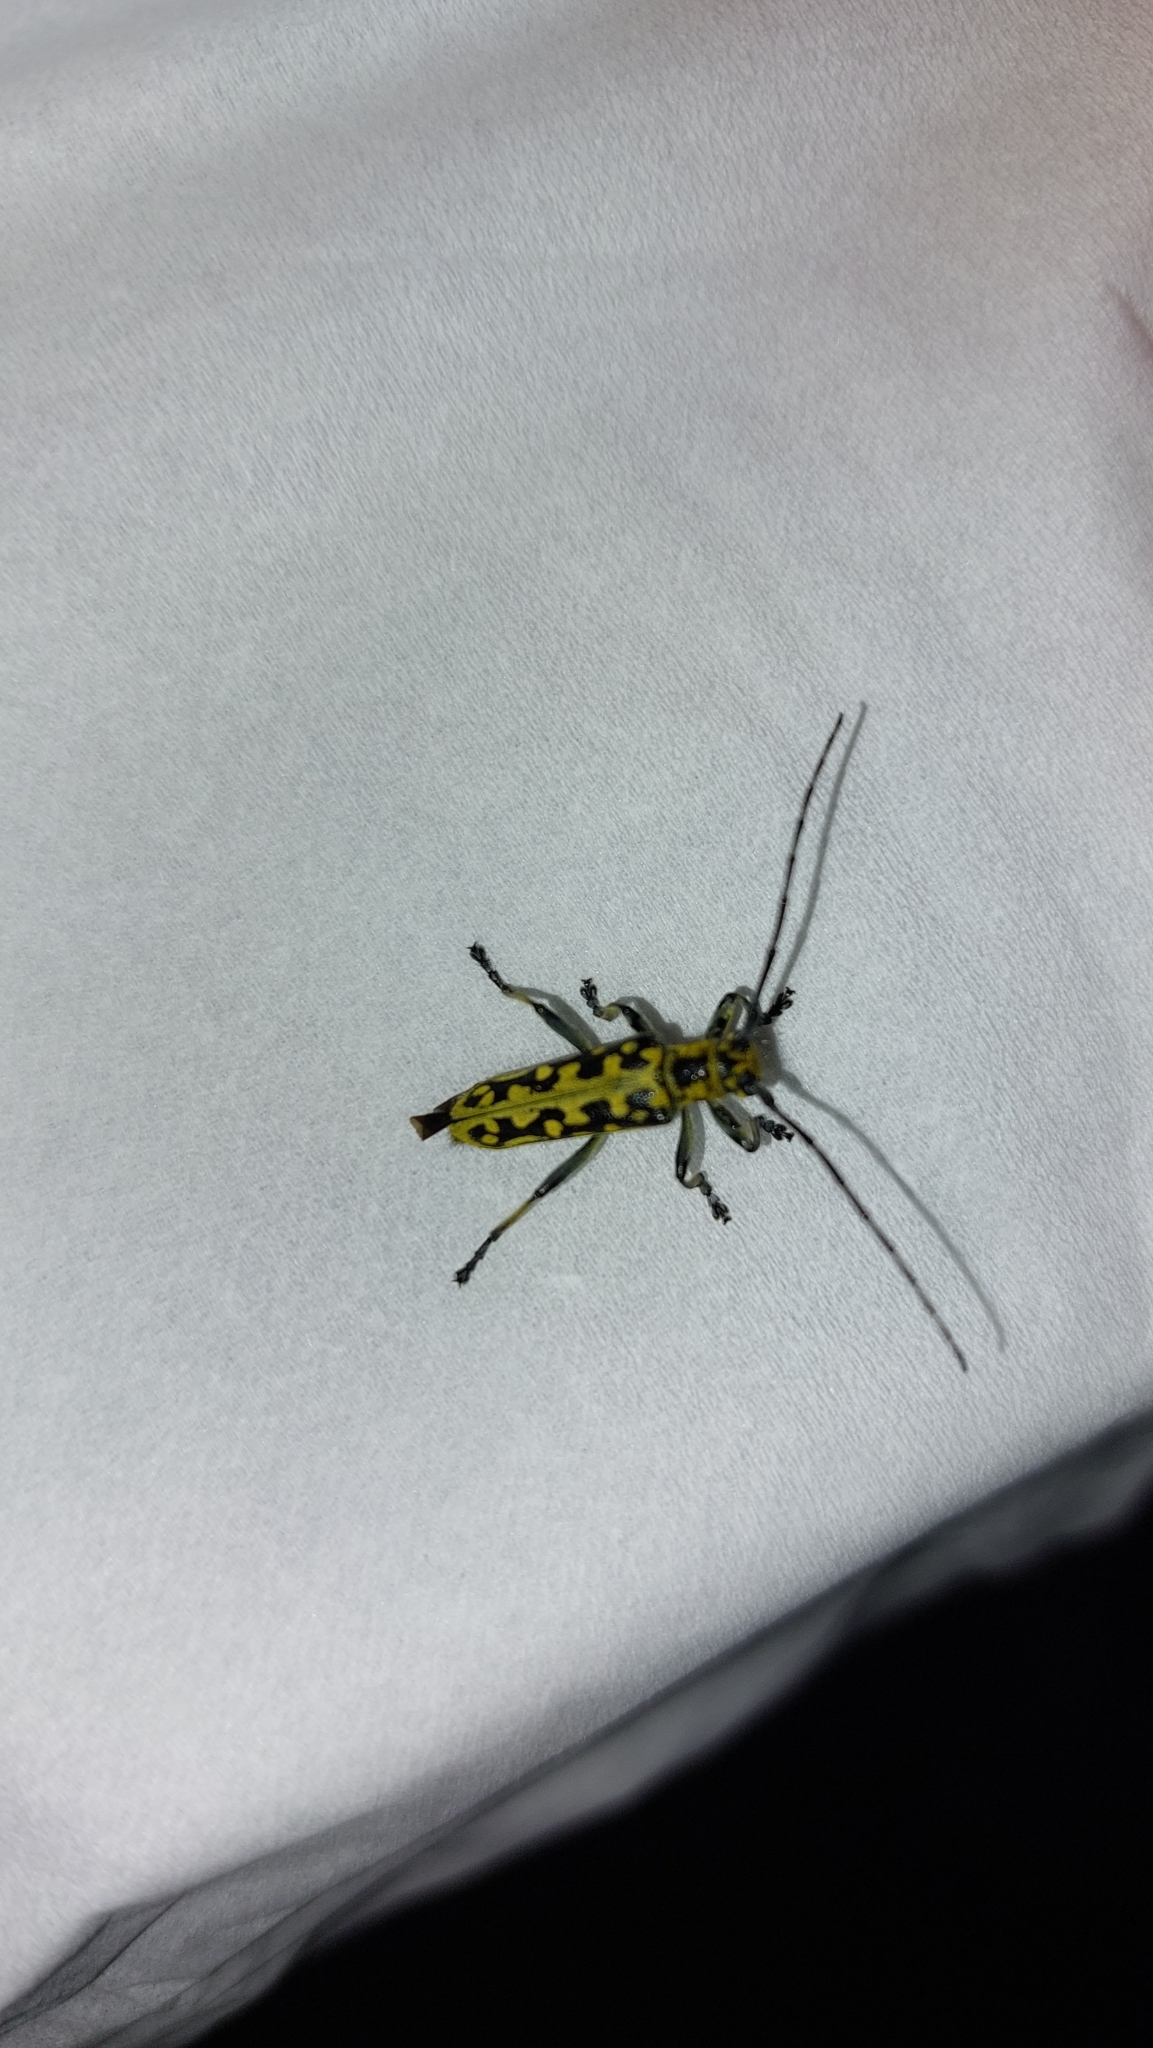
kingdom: Animalia
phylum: Arthropoda
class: Insecta
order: Coleoptera
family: Cerambycidae
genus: Saperda
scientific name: Saperda scalaris
